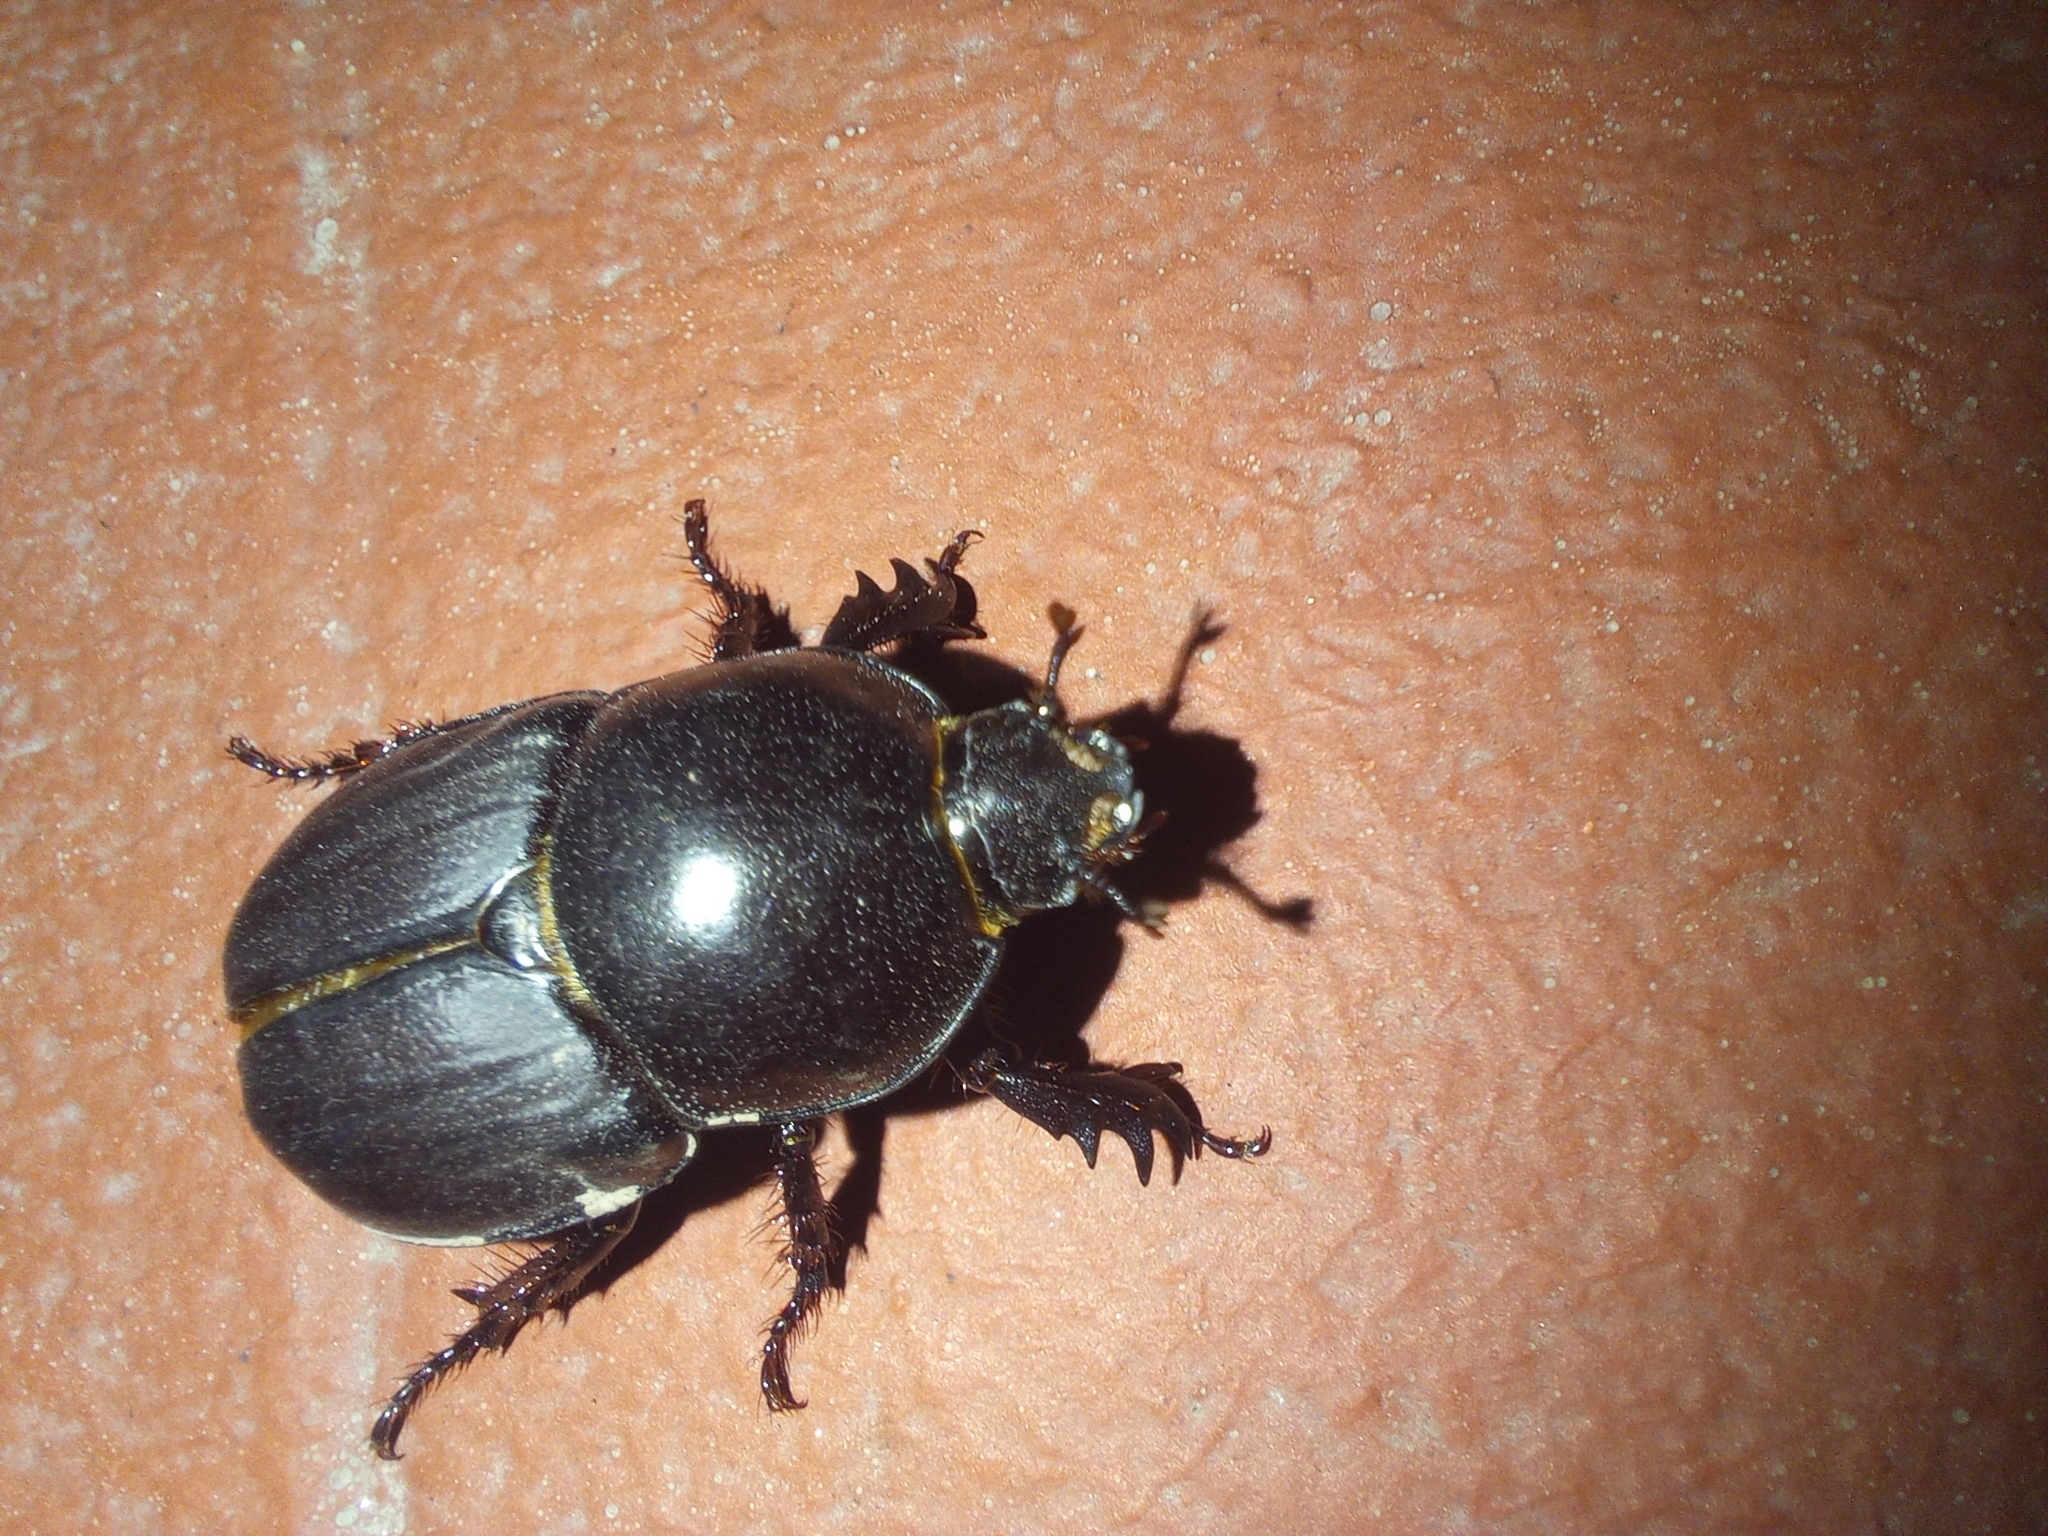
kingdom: Animalia
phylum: Arthropoda
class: Insecta
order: Coleoptera
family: Scarabaeidae
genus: Diloboderus
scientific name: Diloboderus abderus
